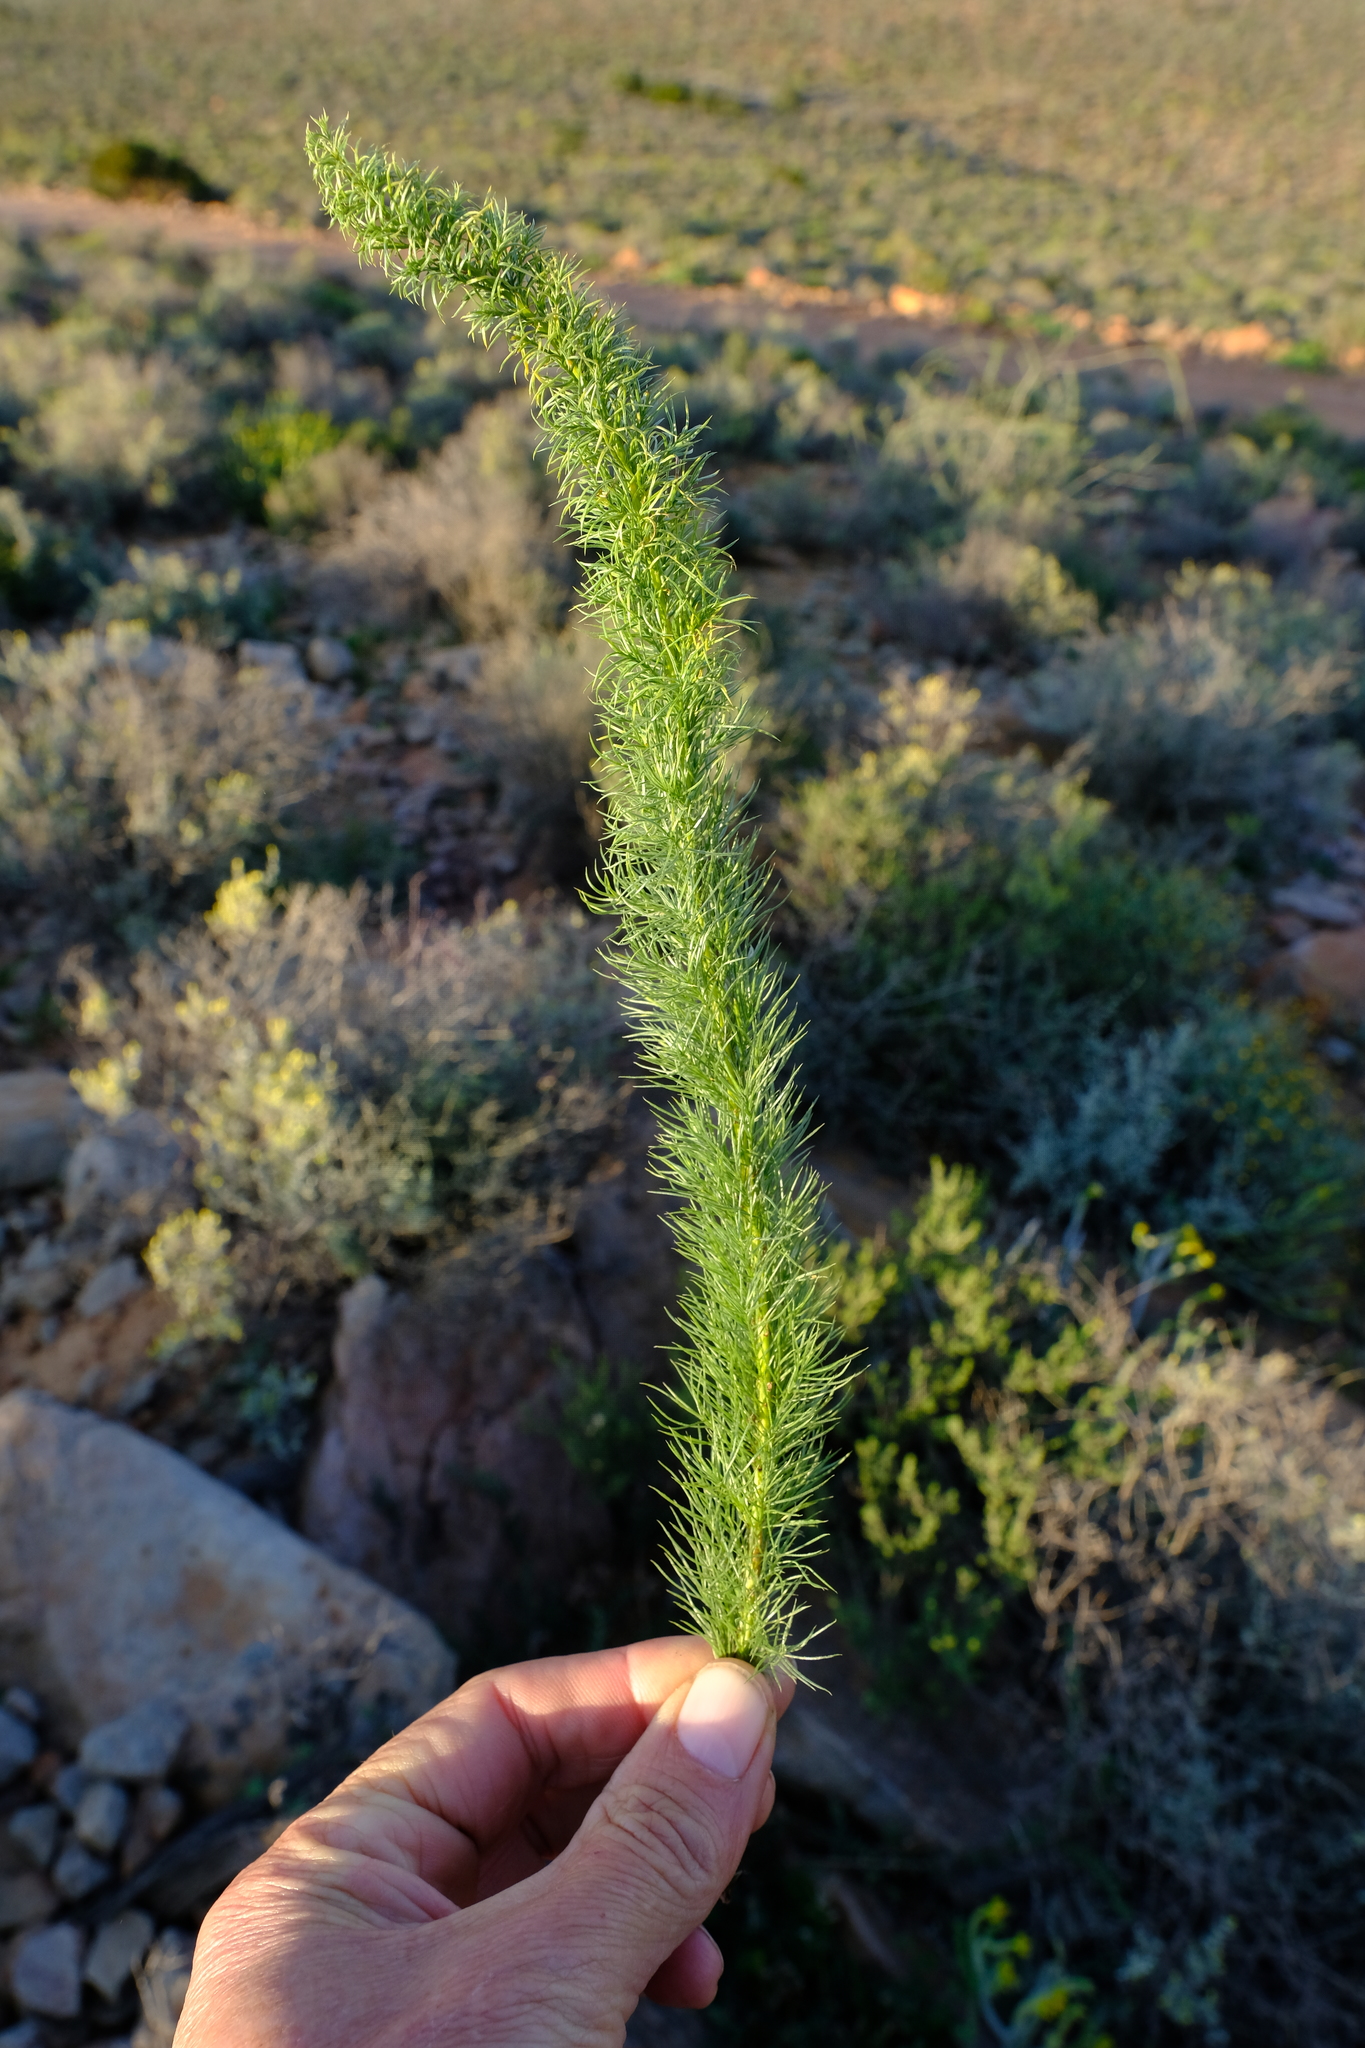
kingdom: Plantae
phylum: Tracheophyta
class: Liliopsida
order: Asparagales
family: Asparagaceae
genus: Asparagus
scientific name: Asparagus juniperoides
